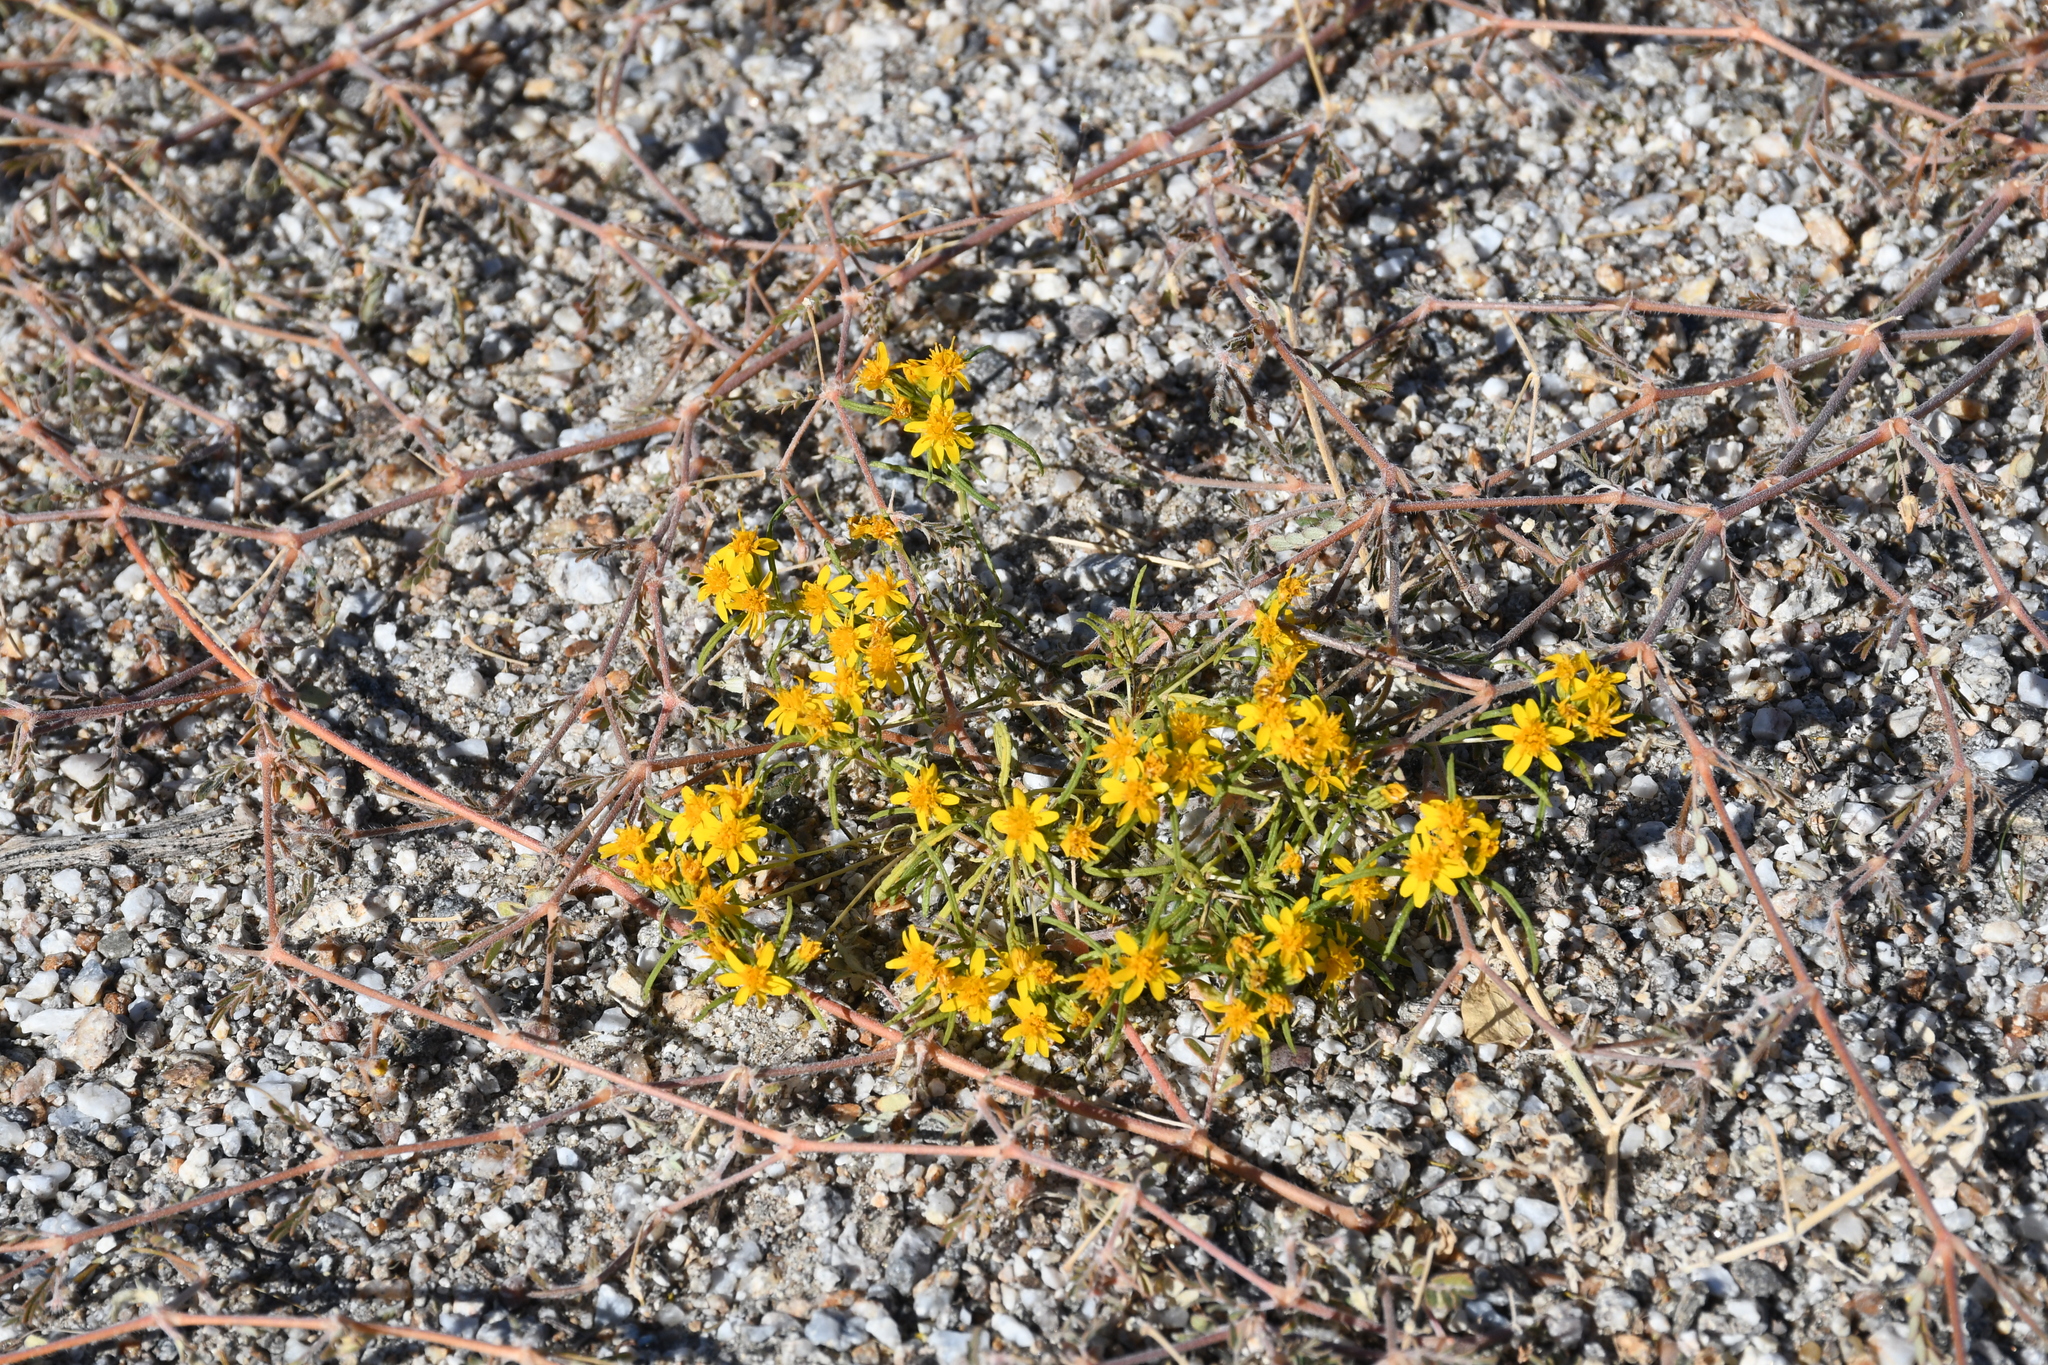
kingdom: Plantae
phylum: Tracheophyta
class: Magnoliopsida
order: Asterales
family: Asteraceae
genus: Pectis
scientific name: Pectis papposa
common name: Many-bristle chinchweed
